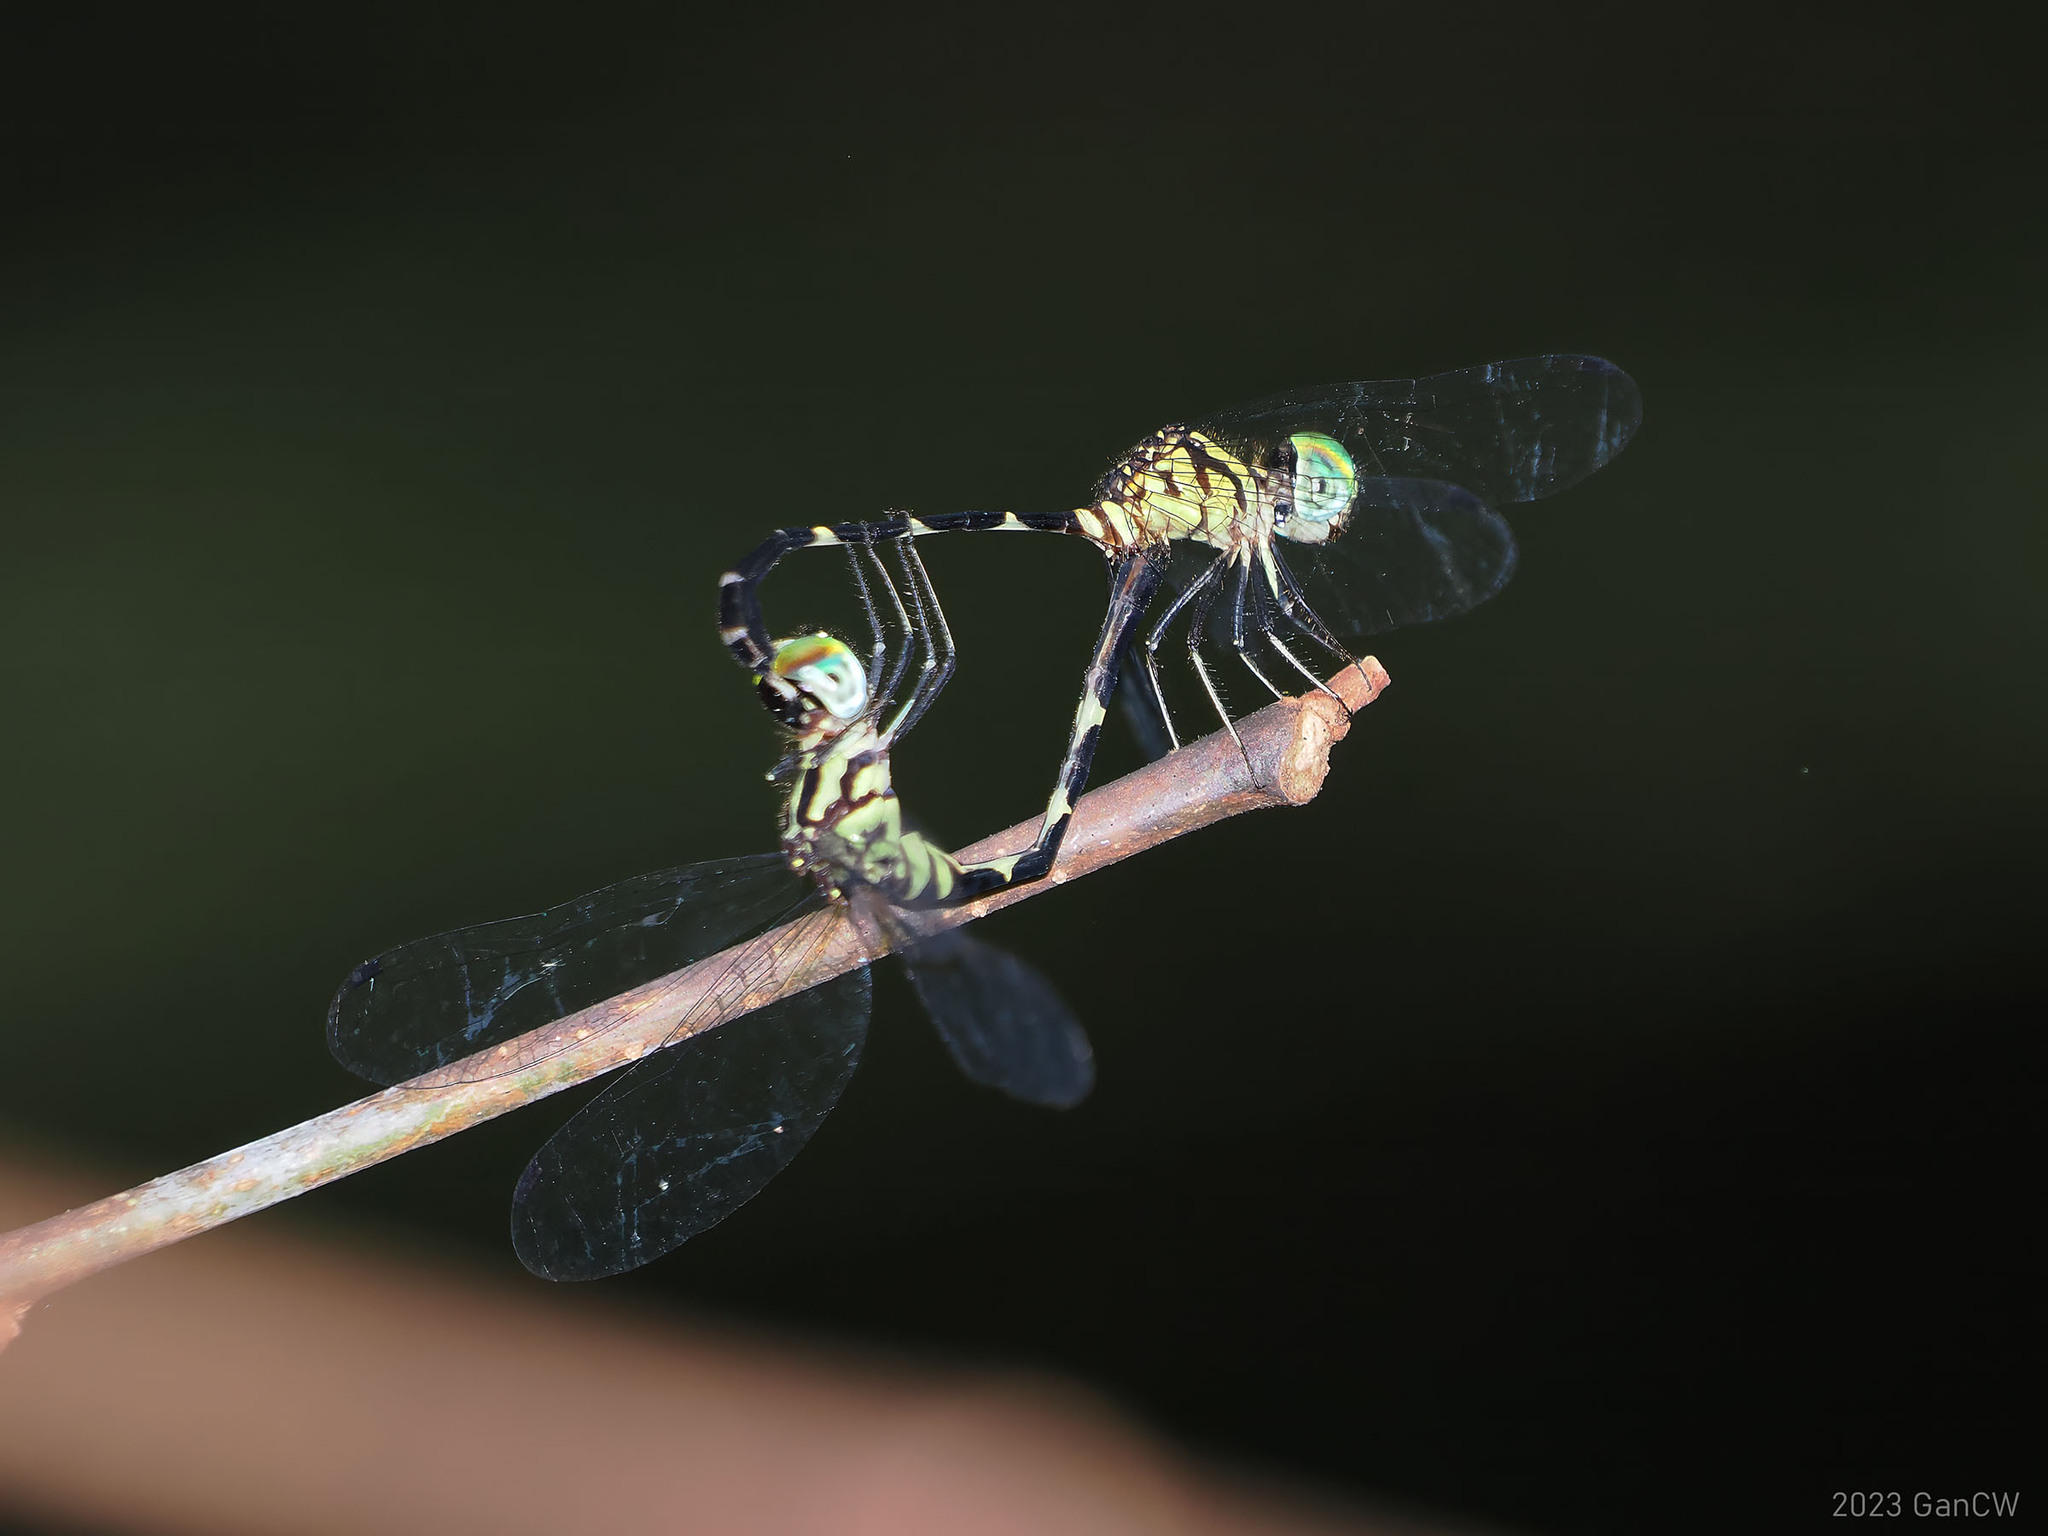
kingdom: Animalia
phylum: Arthropoda
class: Insecta
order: Odonata
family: Libellulidae
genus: Nesoxenia
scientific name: Nesoxenia mysis
